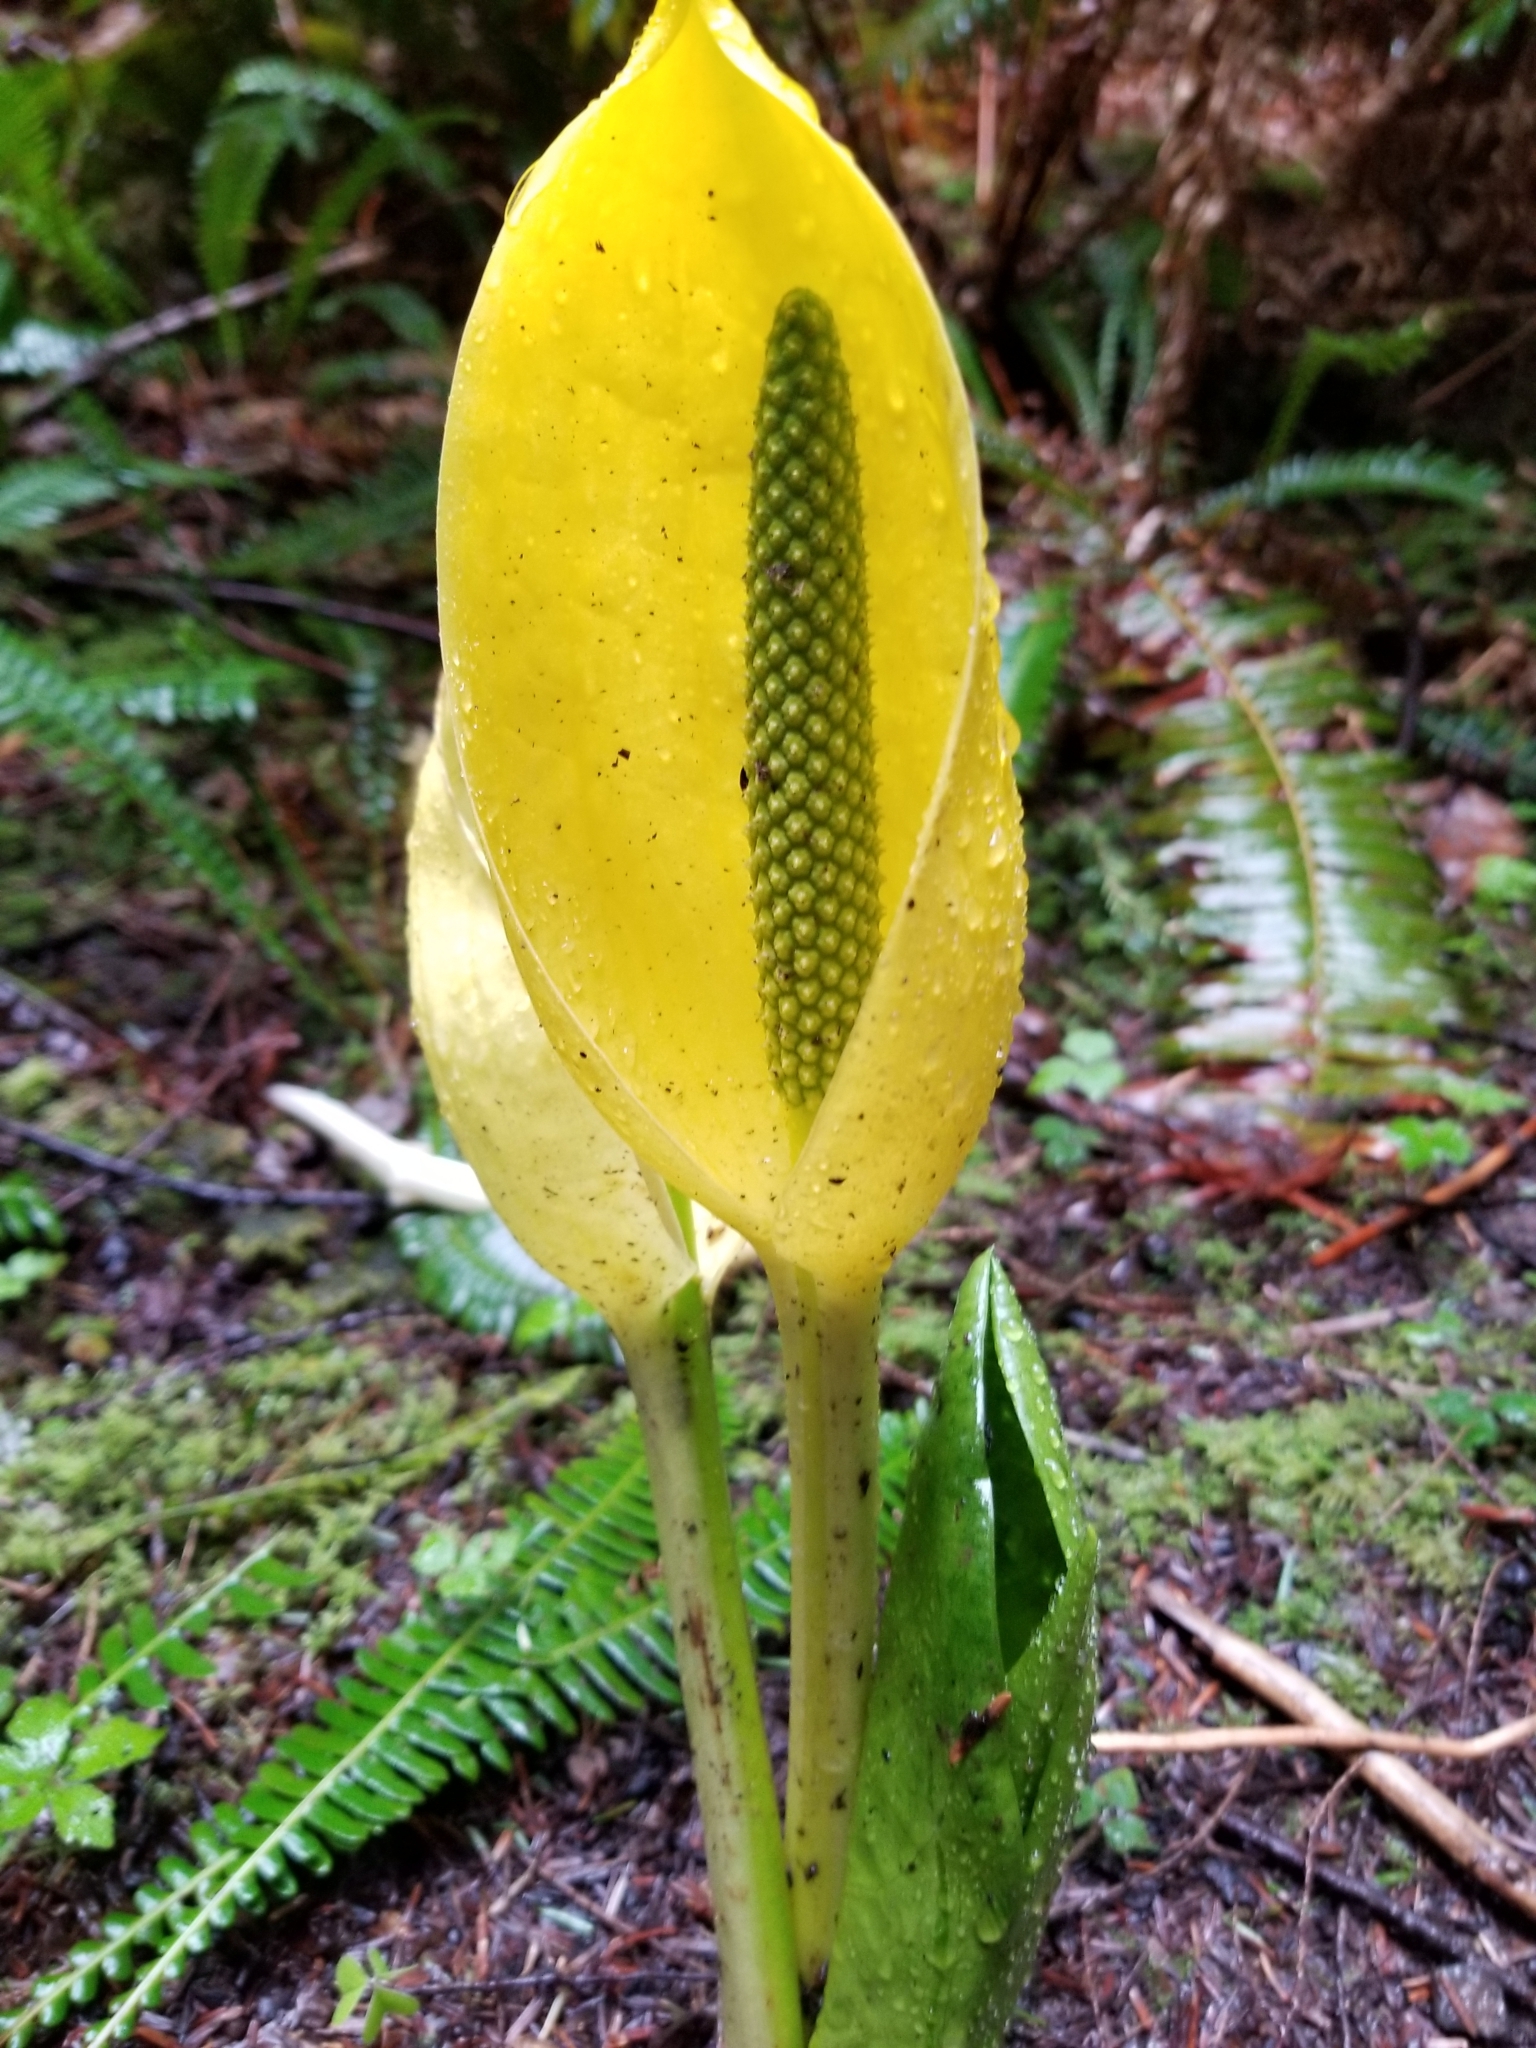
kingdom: Plantae
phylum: Tracheophyta
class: Liliopsida
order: Alismatales
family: Araceae
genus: Lysichiton
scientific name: Lysichiton americanus
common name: American skunk cabbage
